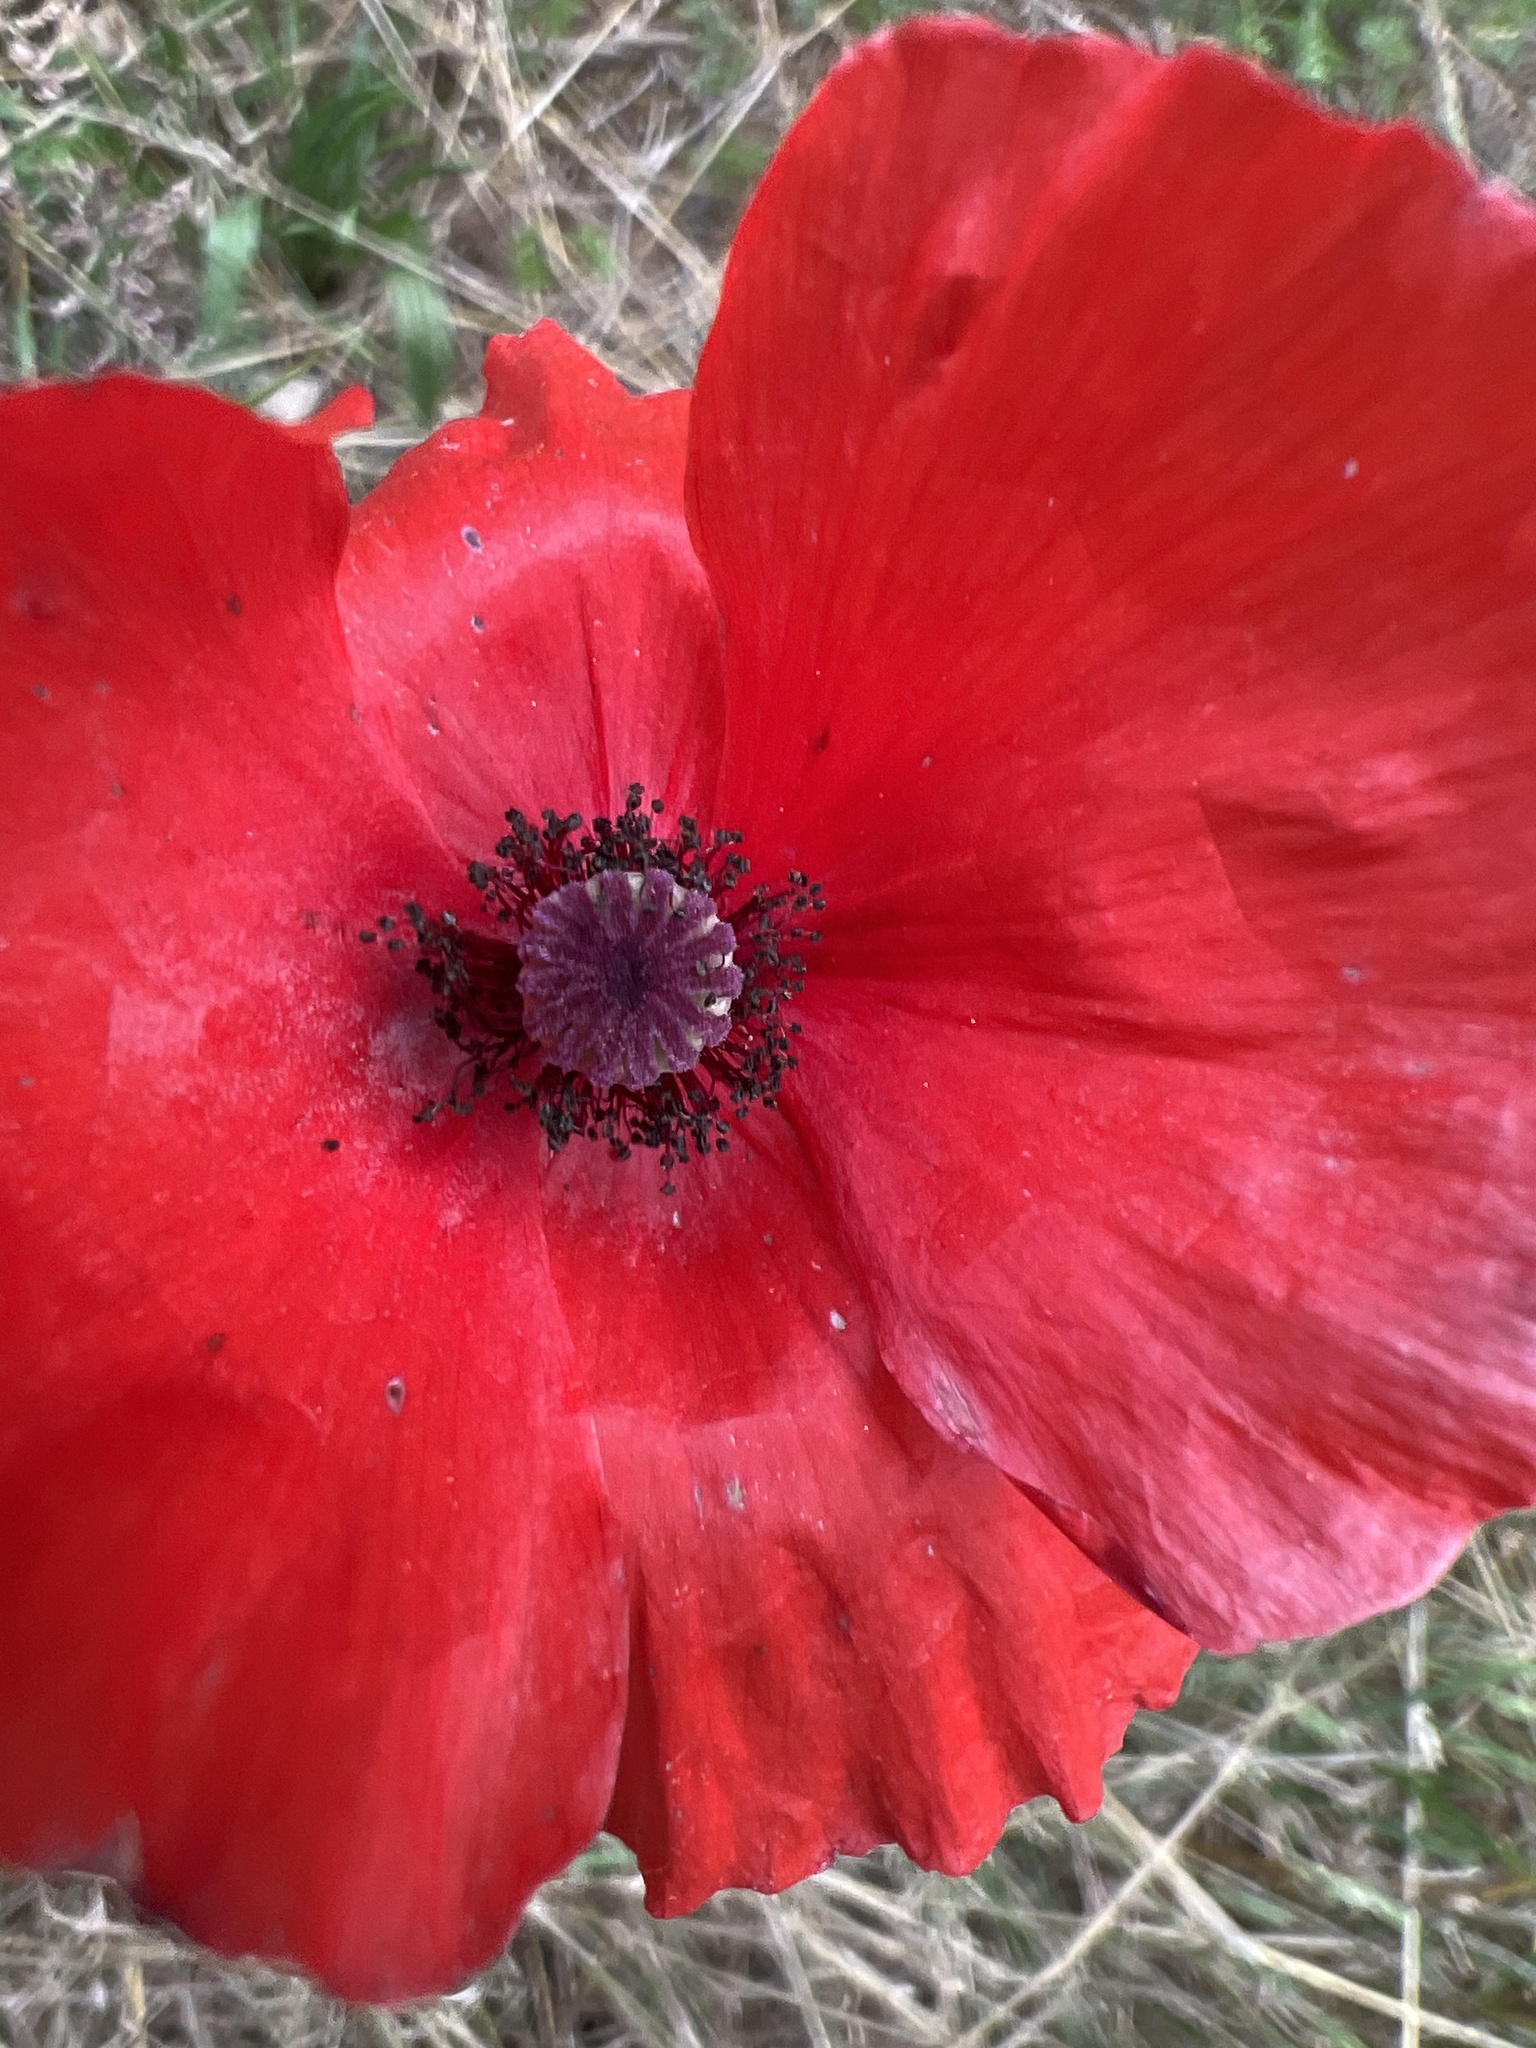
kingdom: Plantae
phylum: Tracheophyta
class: Magnoliopsida
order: Ranunculales
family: Papaveraceae
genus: Papaver
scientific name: Papaver rhoeas
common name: Corn poppy
